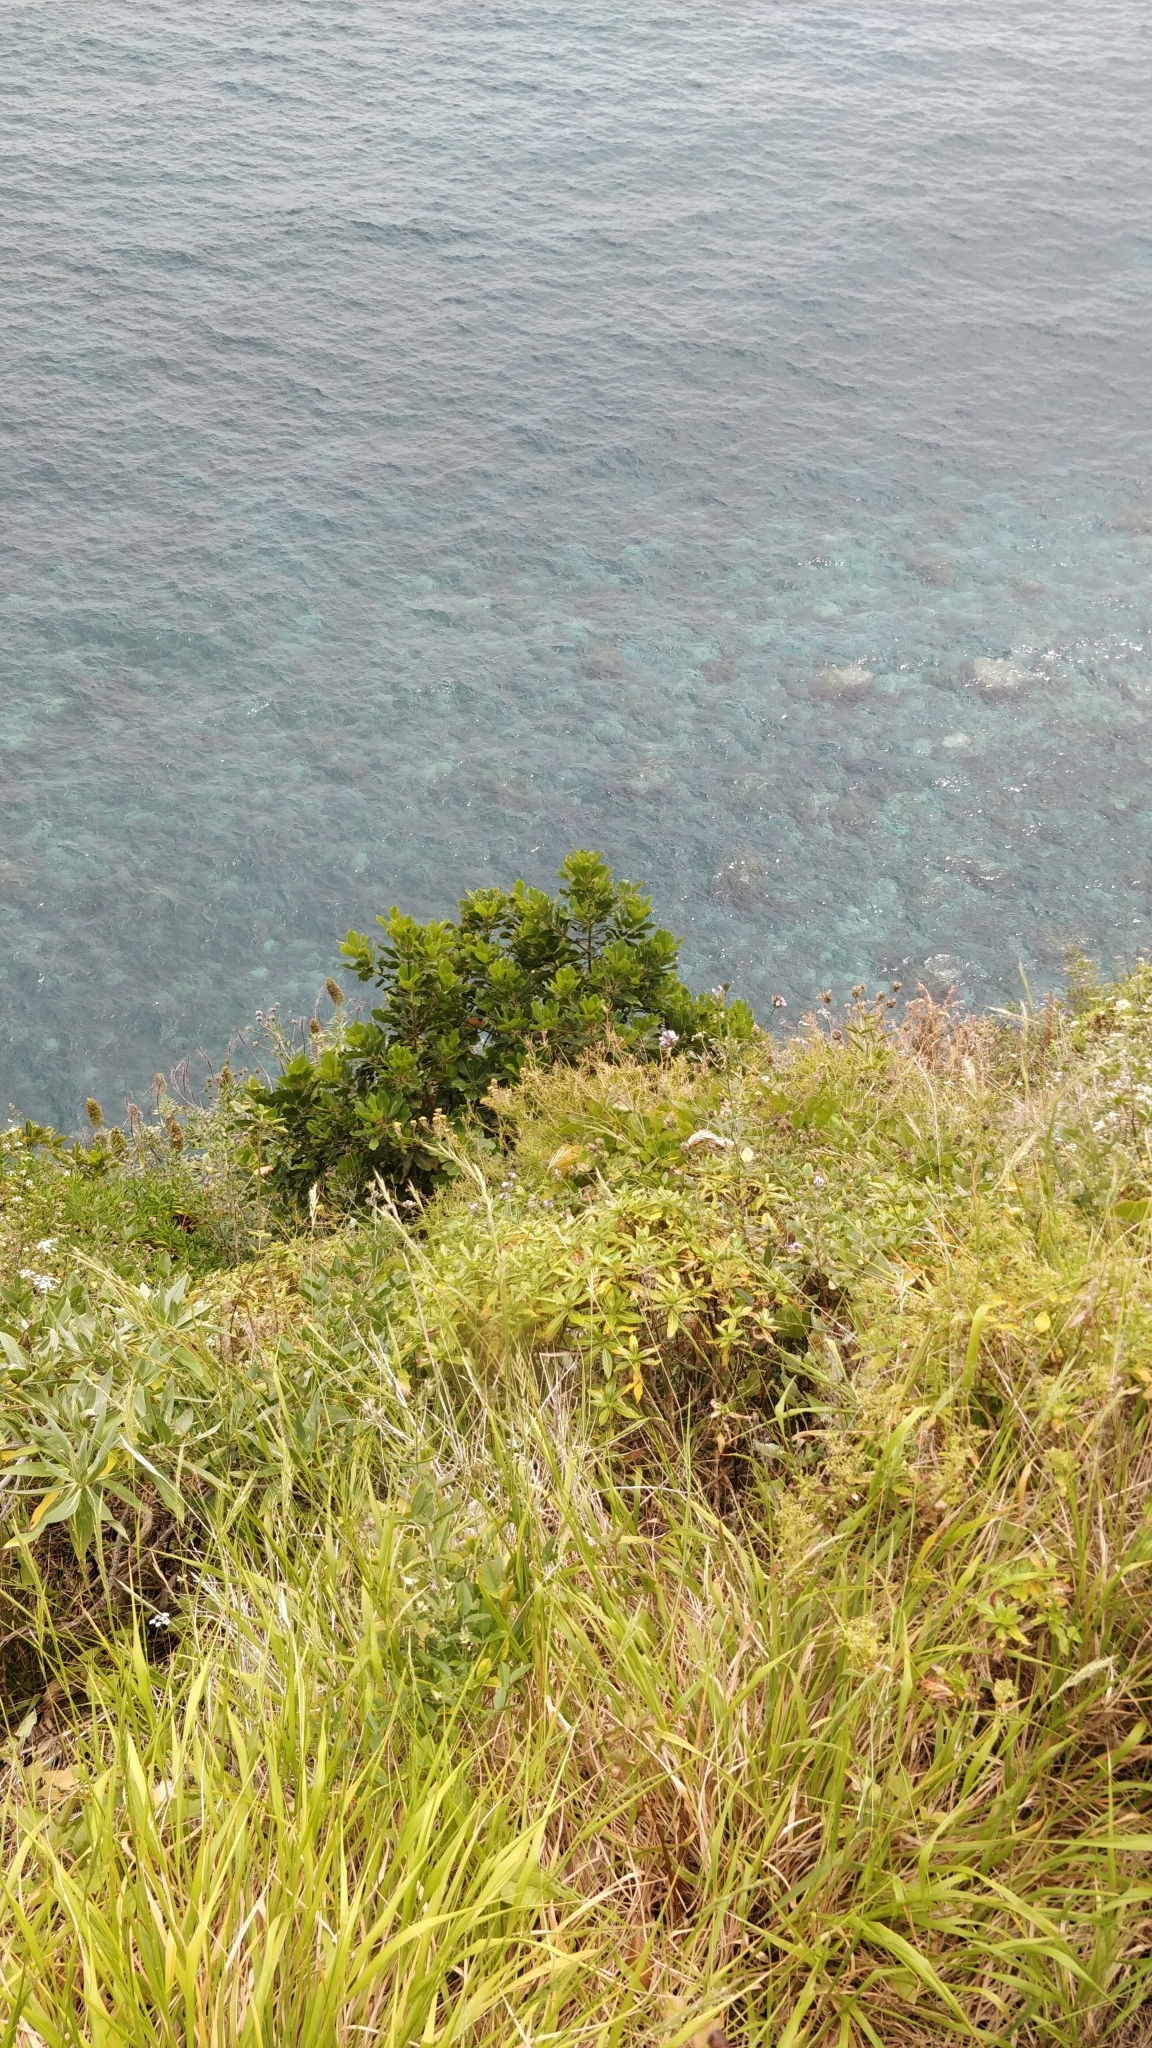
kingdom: Plantae
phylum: Tracheophyta
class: Magnoliopsida
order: Ericales
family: Sapotaceae
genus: Sideroxylon
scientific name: Sideroxylon mirmulans
